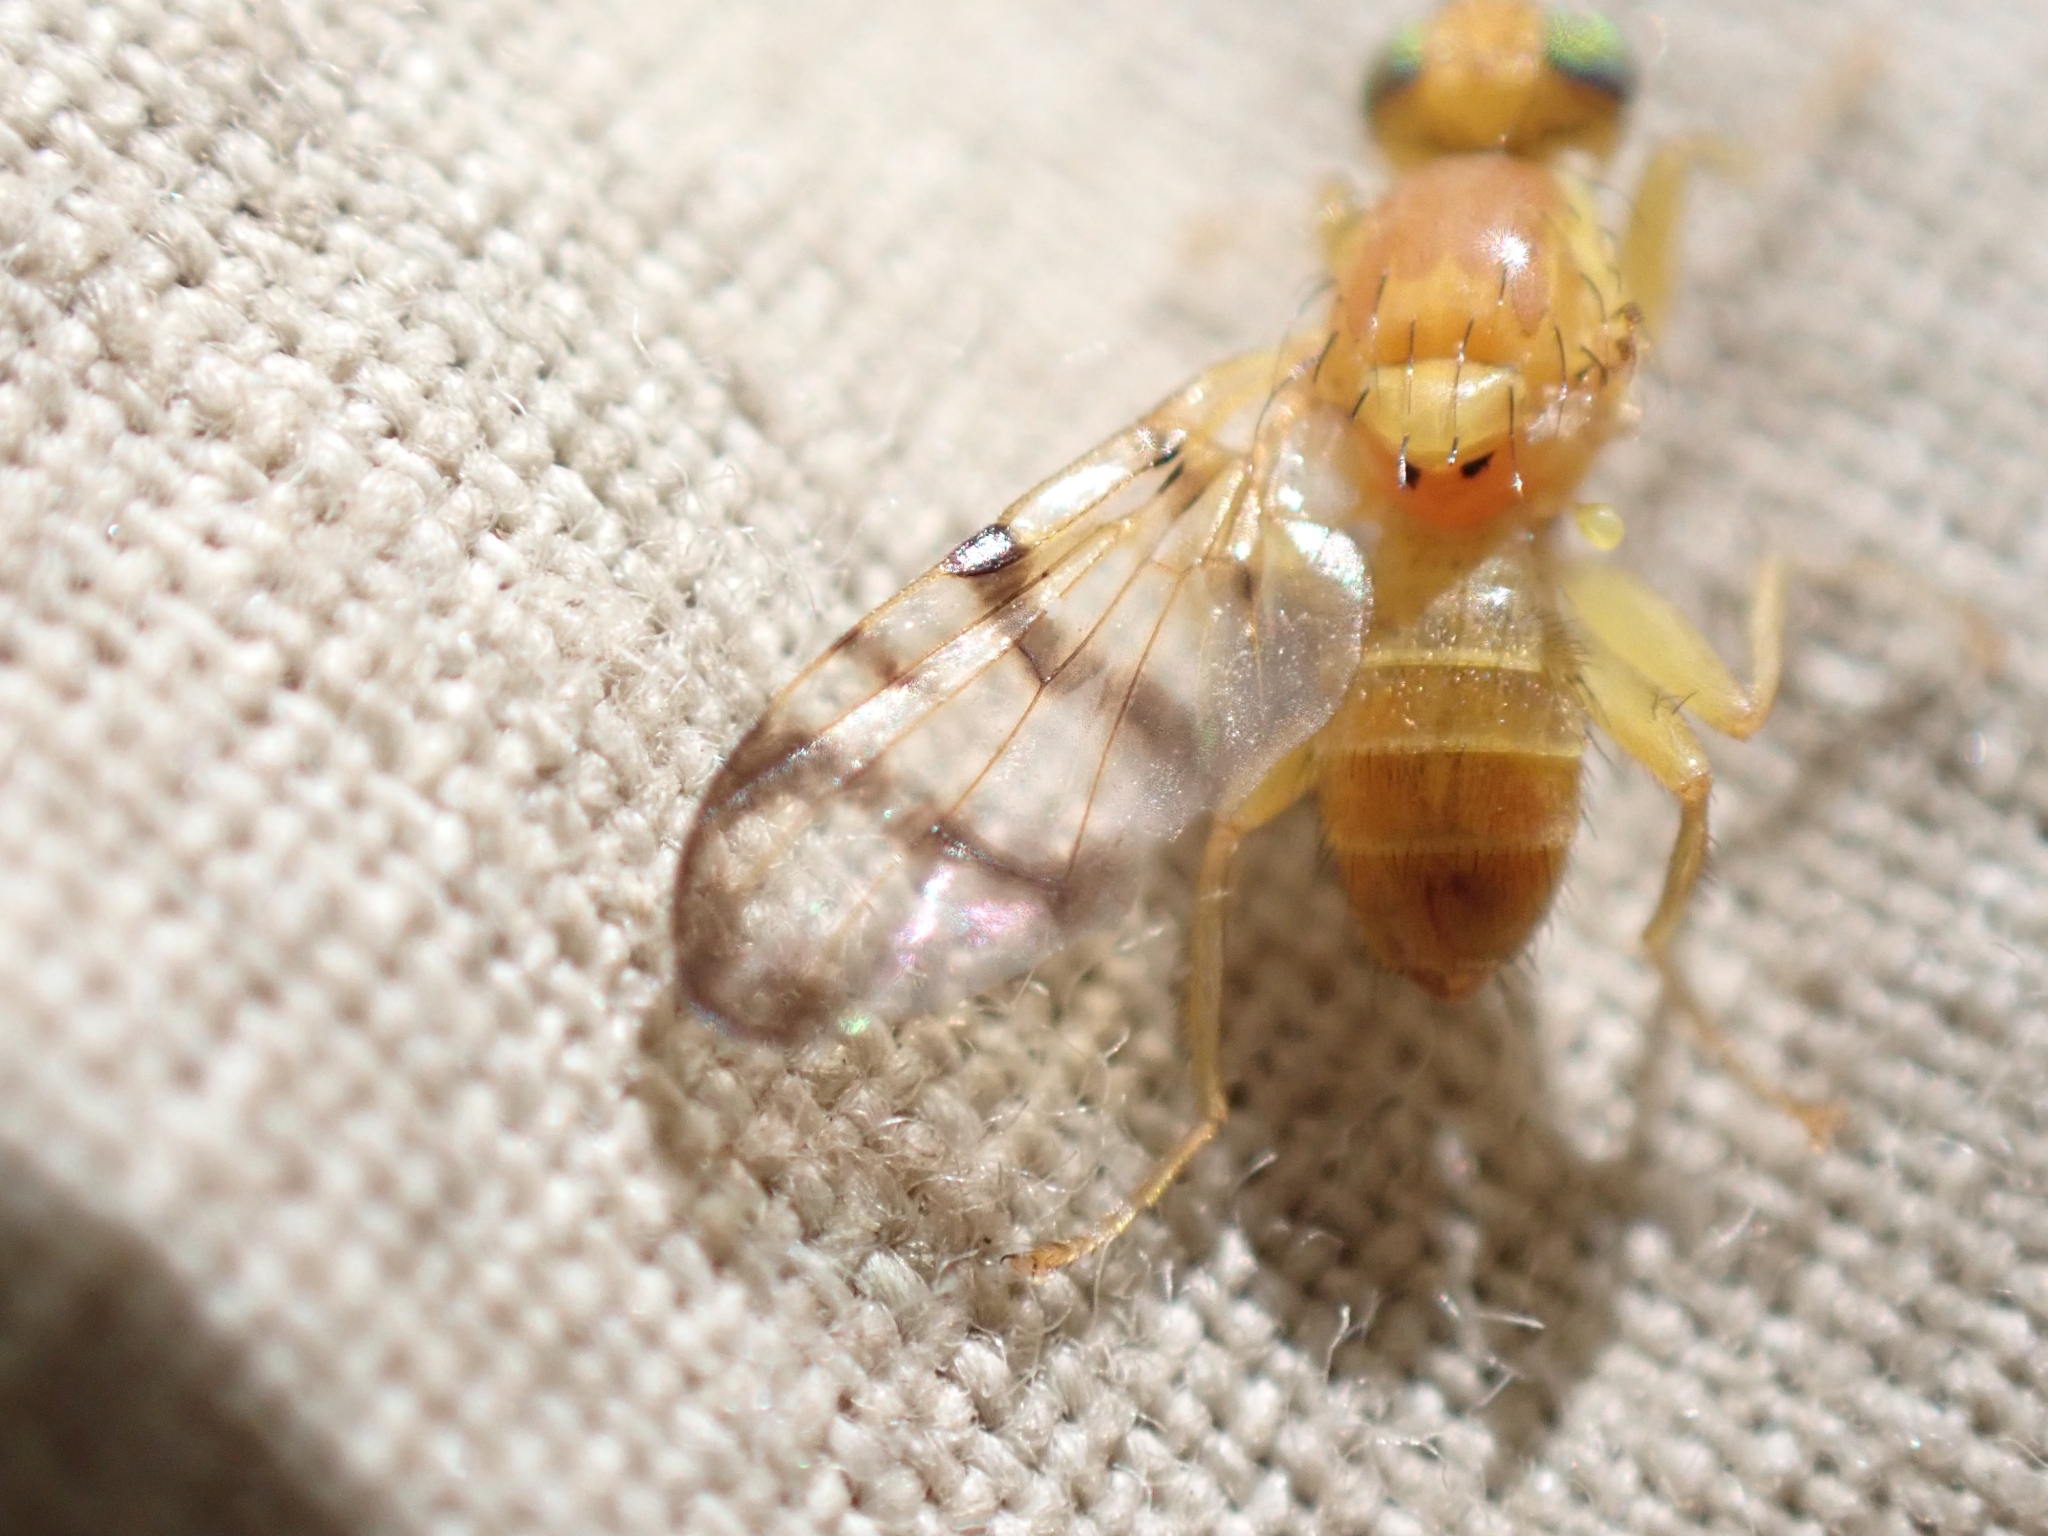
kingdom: Animalia
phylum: Arthropoda
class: Insecta
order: Diptera
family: Tephritidae
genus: Rhagoletis
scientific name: Rhagoletis basiola
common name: Rose hip fly
